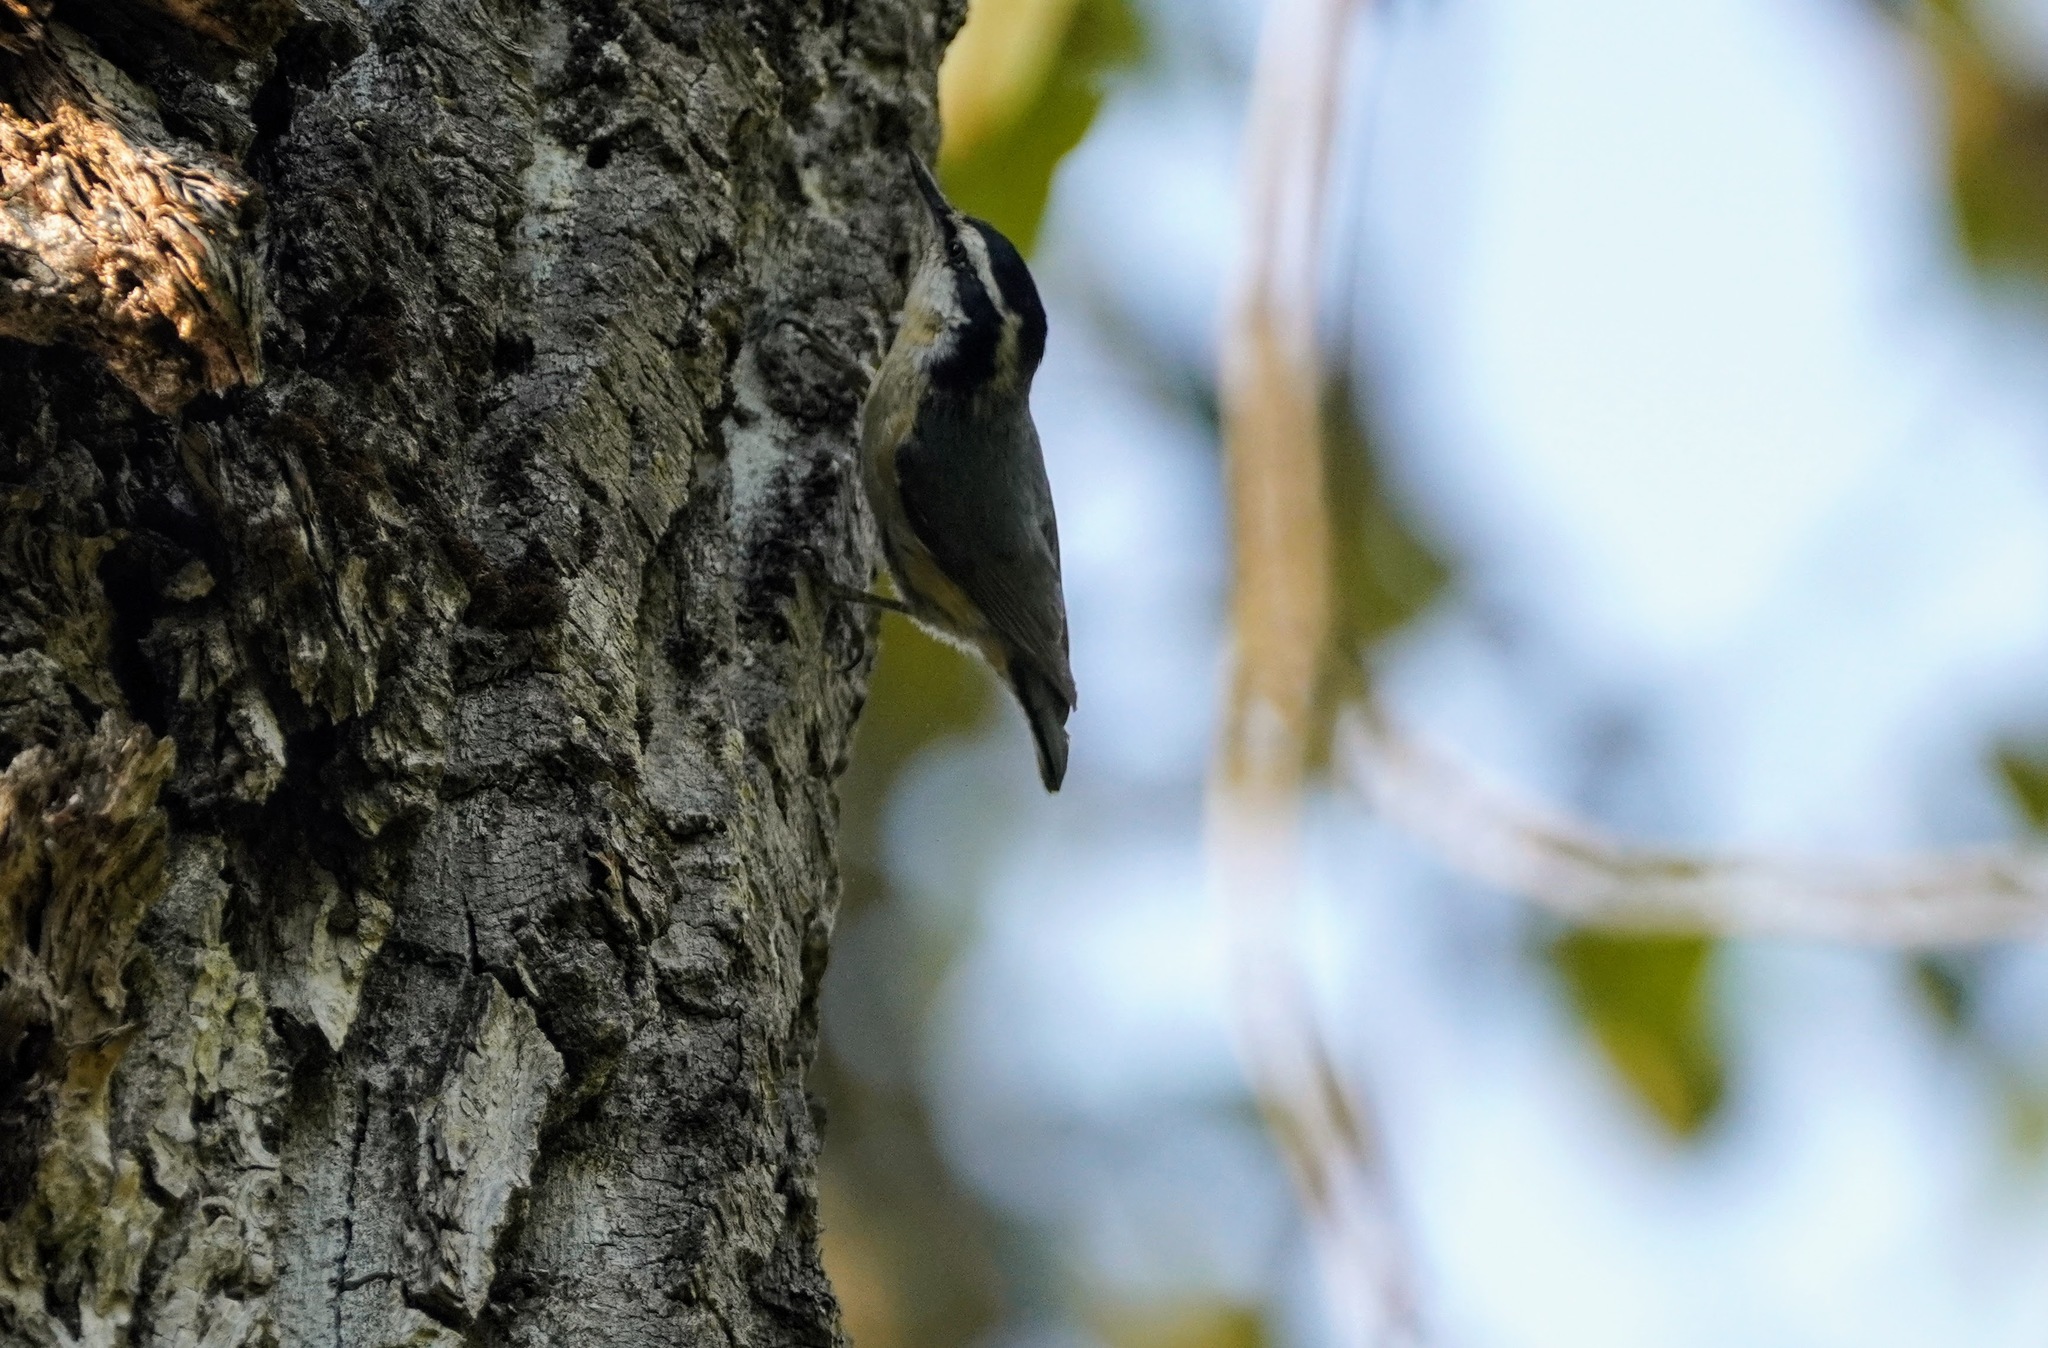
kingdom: Animalia
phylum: Chordata
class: Aves
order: Passeriformes
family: Sittidae
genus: Sitta
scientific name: Sitta canadensis
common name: Red-breasted nuthatch
